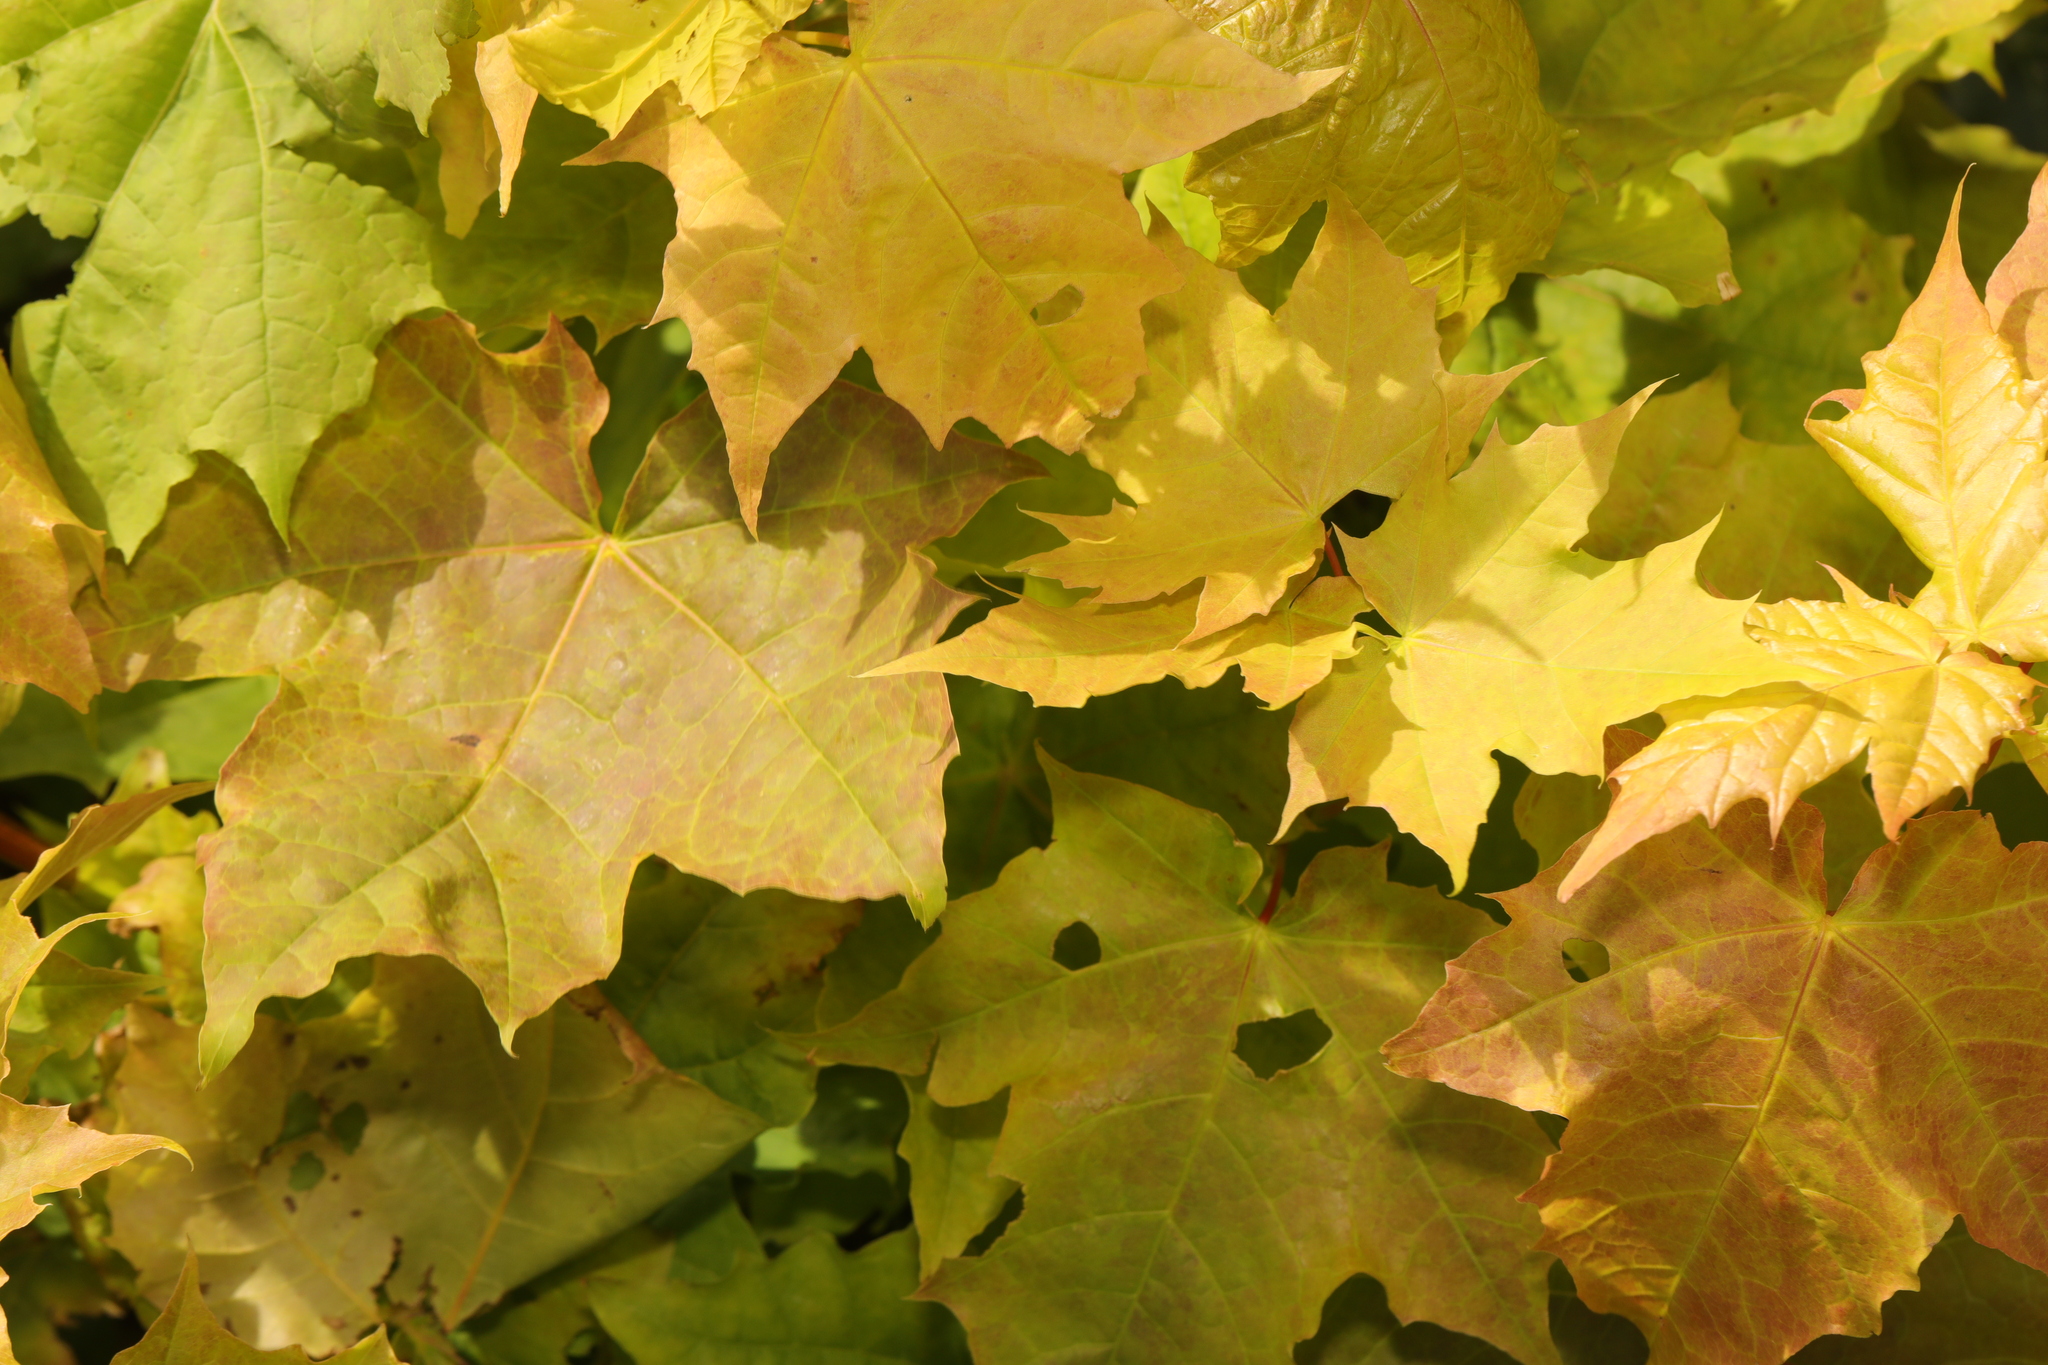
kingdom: Plantae
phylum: Tracheophyta
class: Magnoliopsida
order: Sapindales
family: Sapindaceae
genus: Acer
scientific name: Acer platanoides
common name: Norway maple
